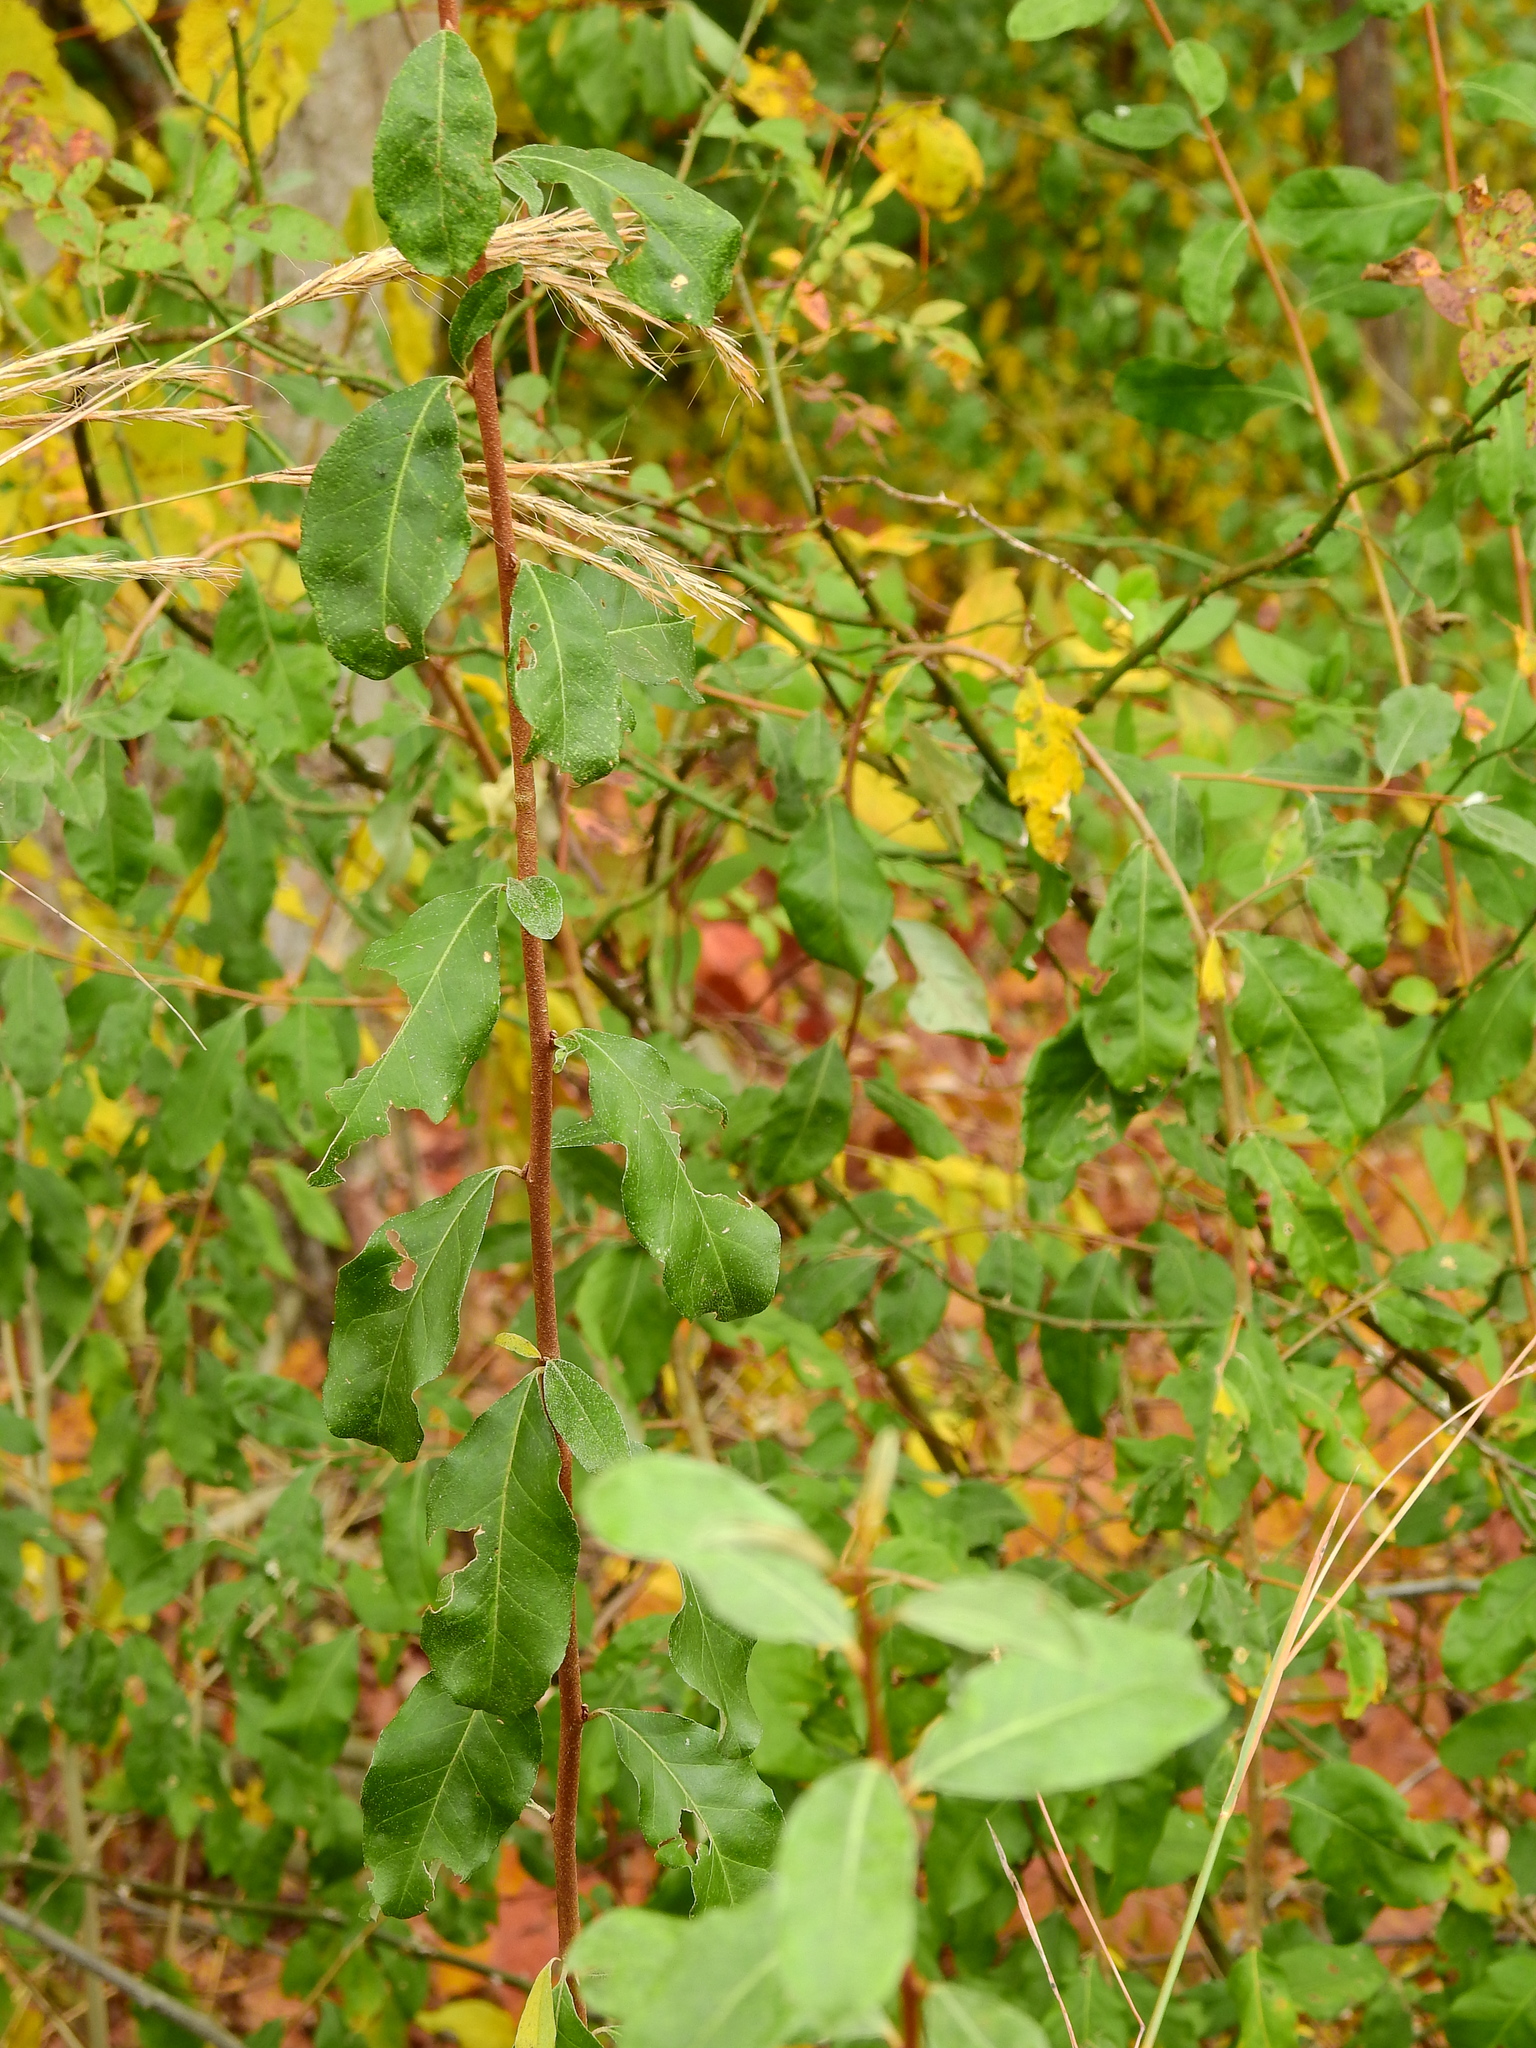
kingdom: Plantae
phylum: Tracheophyta
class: Magnoliopsida
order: Rosales
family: Elaeagnaceae
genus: Elaeagnus
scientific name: Elaeagnus umbellata
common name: Autumn olive
